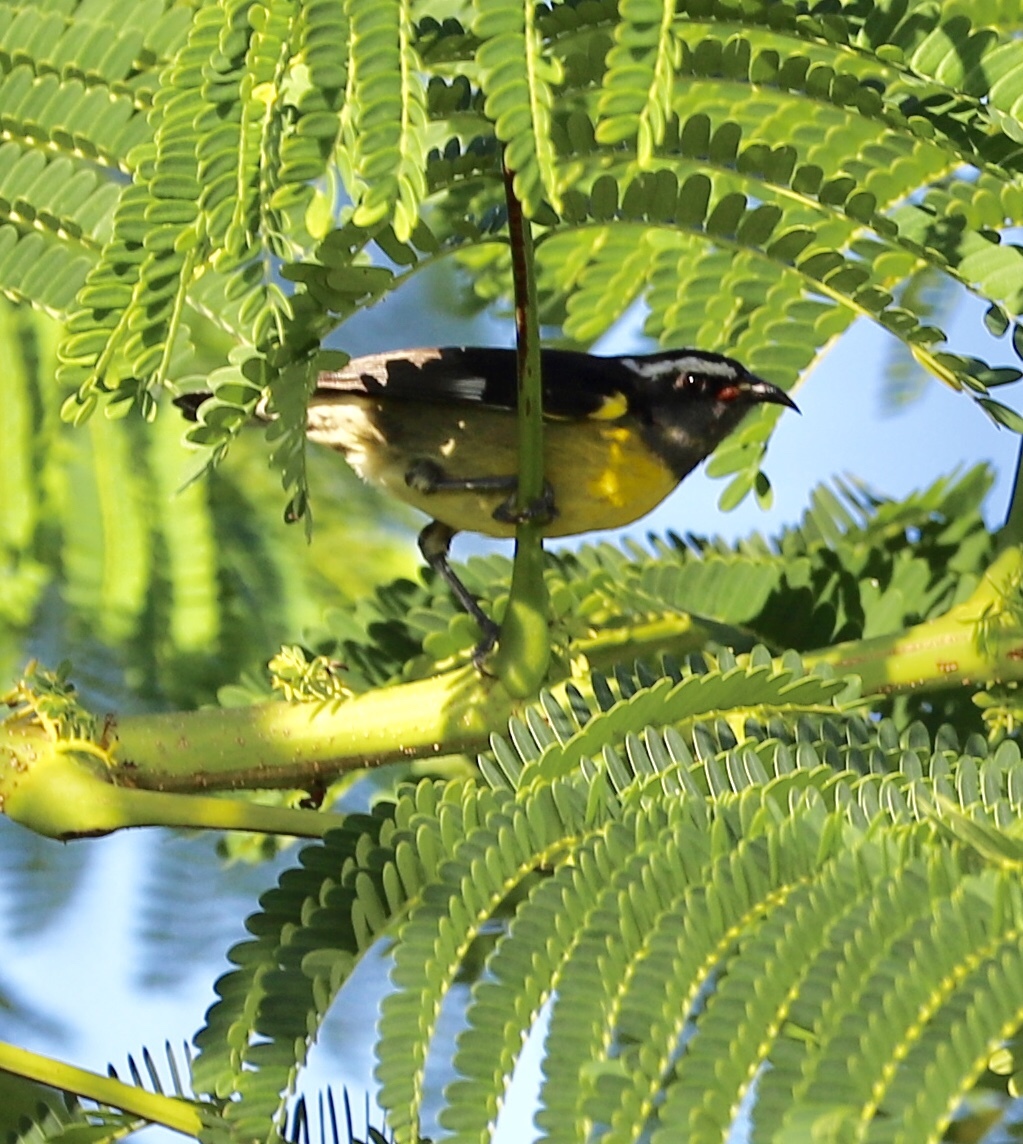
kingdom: Animalia
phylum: Chordata
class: Aves
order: Passeriformes
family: Thraupidae
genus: Coereba
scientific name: Coereba flaveola
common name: Bananaquit
